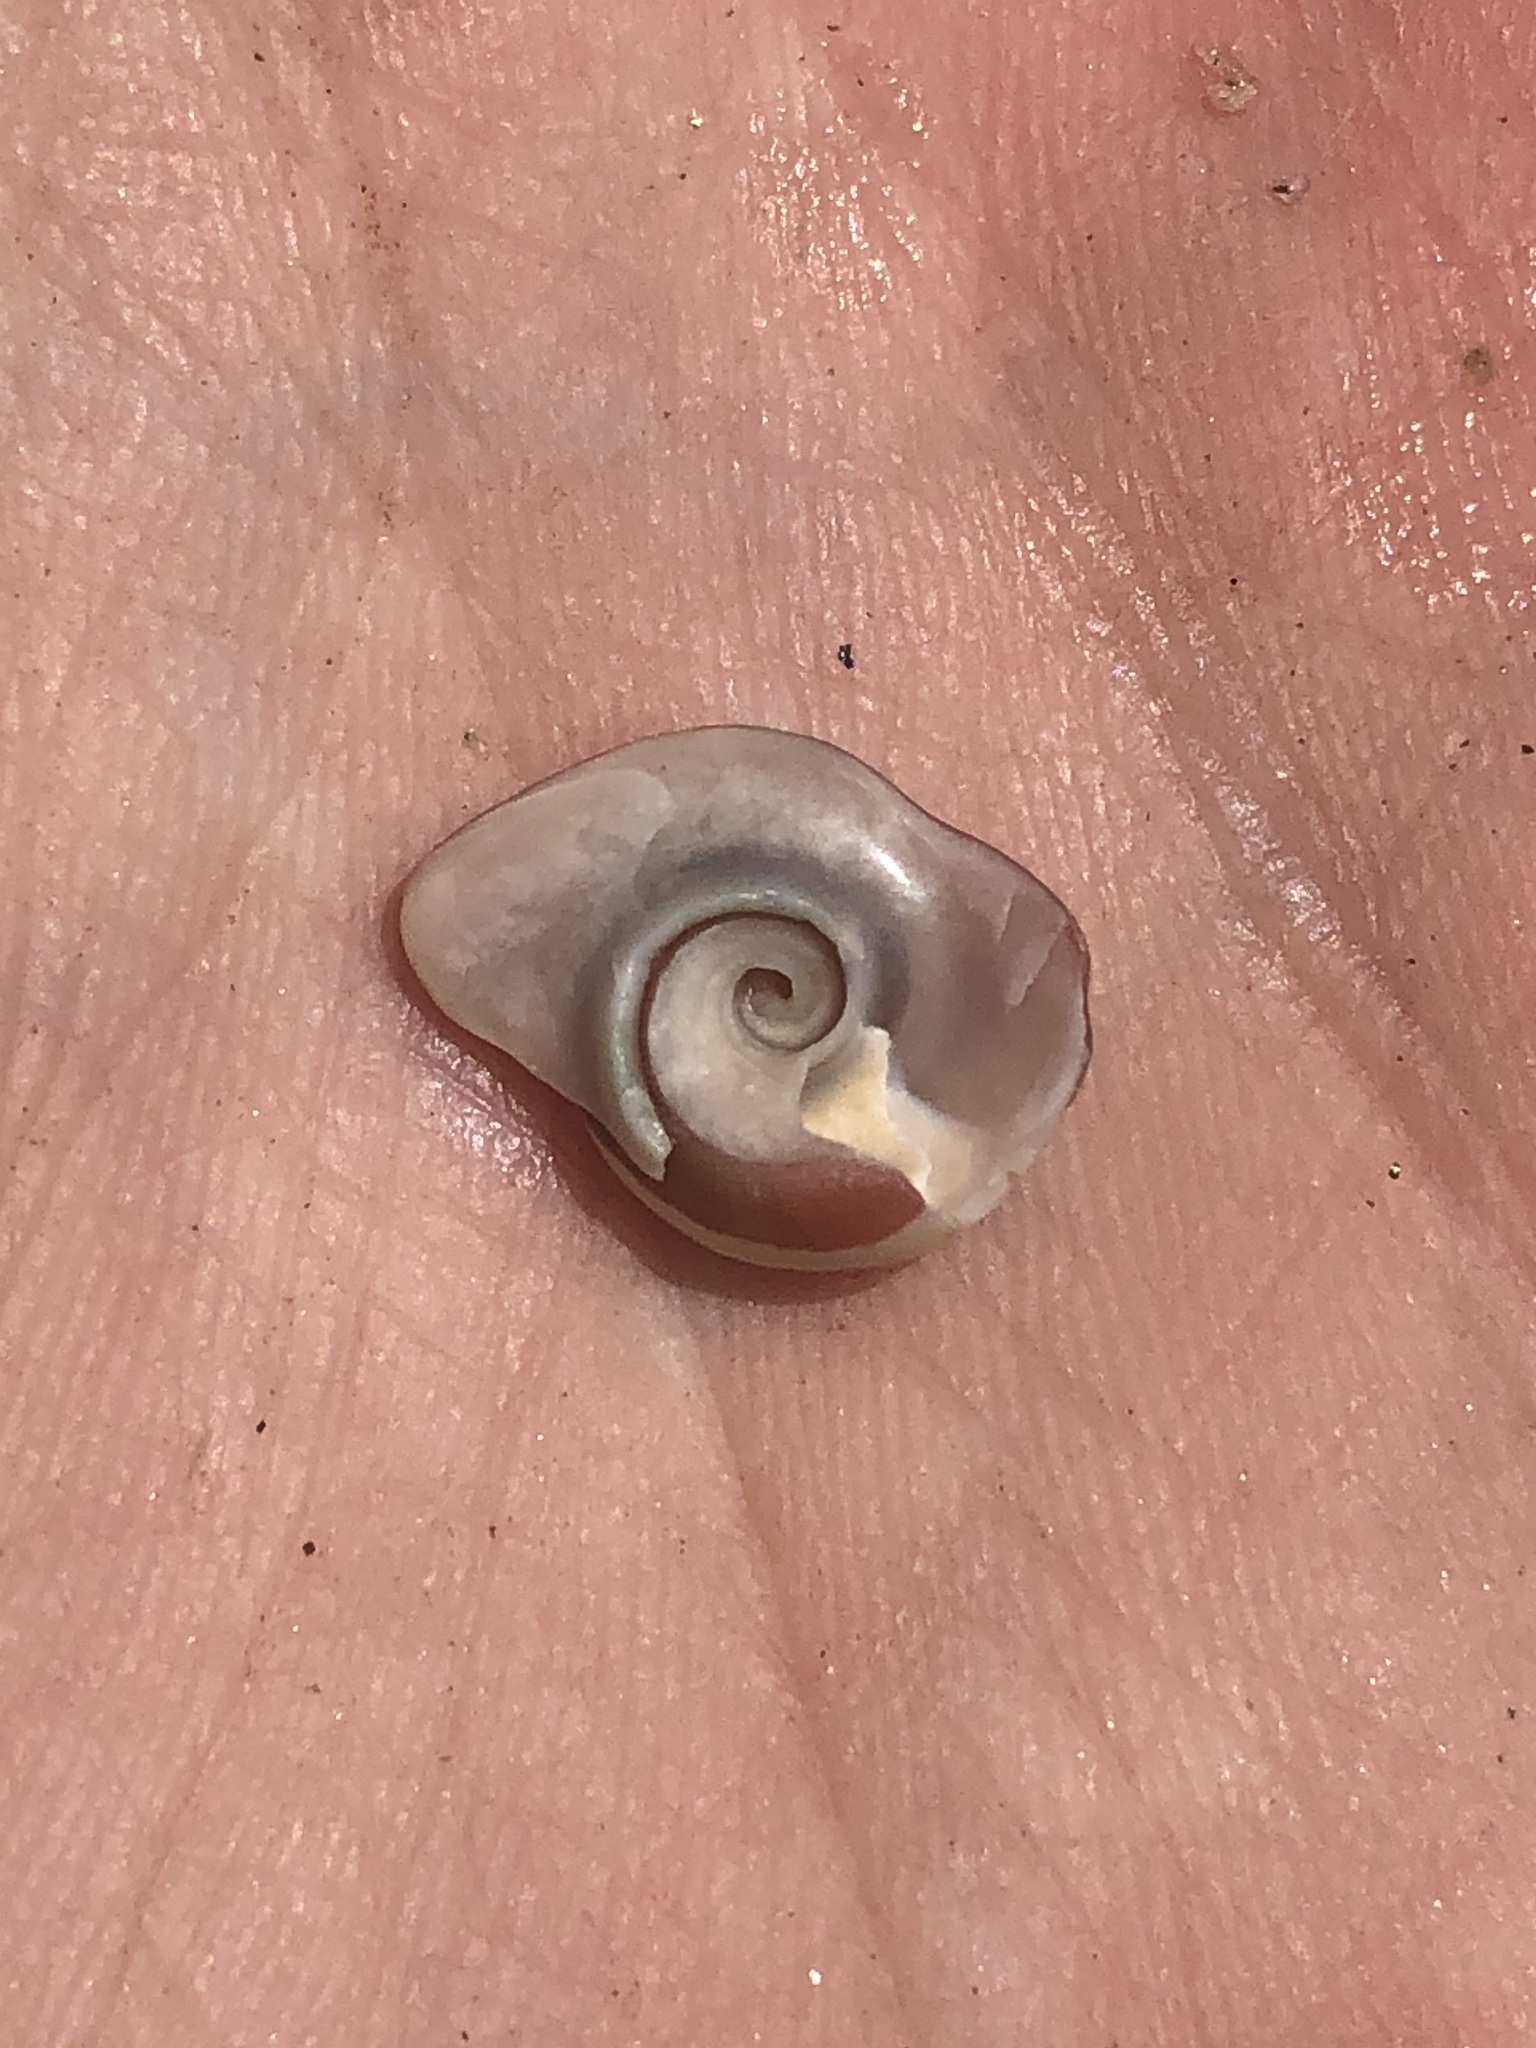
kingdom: Animalia
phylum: Mollusca
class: Gastropoda
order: Trochida
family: Tegulidae
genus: Norrisia
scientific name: Norrisia norrisii
